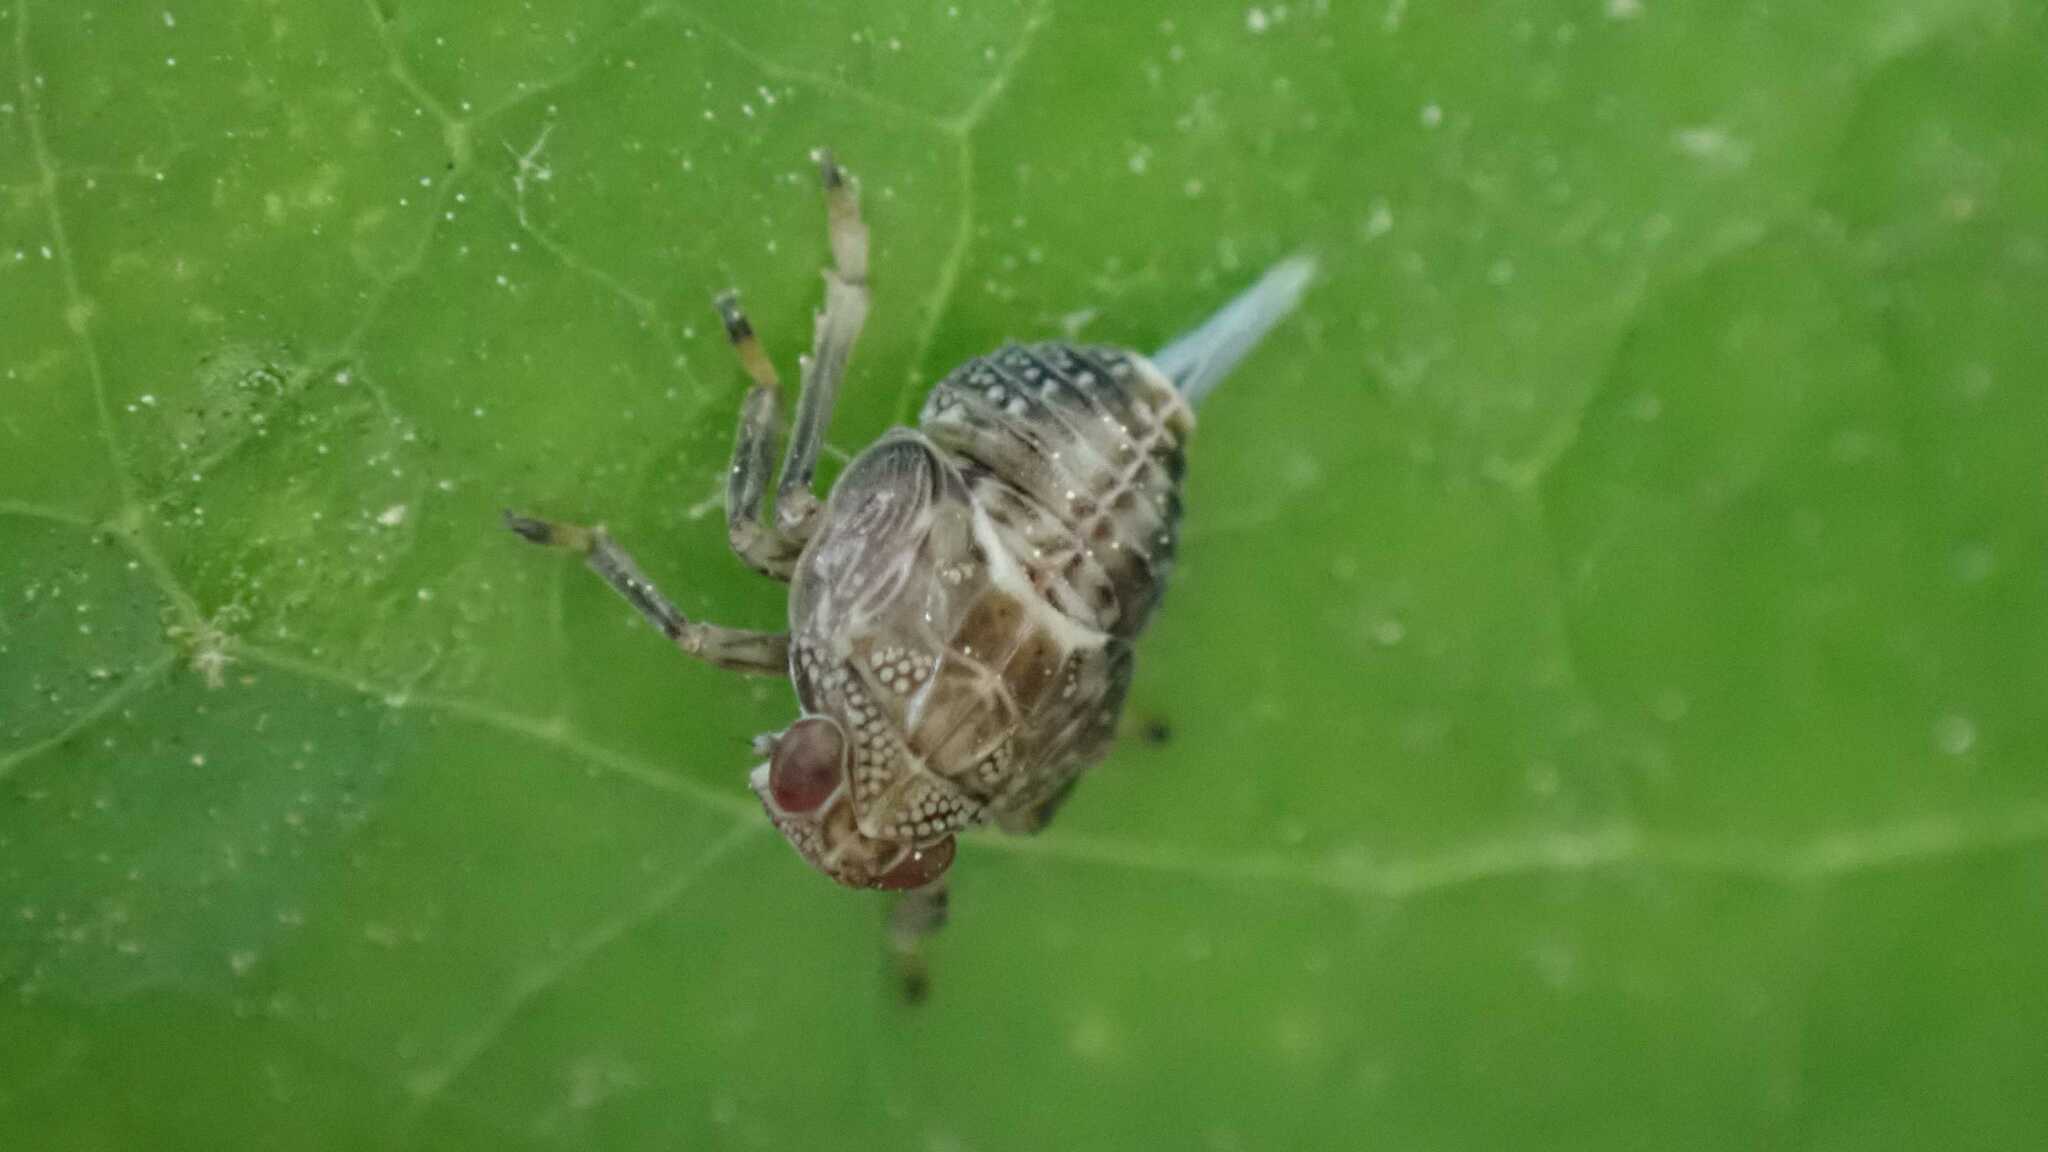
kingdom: Animalia
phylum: Arthropoda
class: Insecta
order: Hemiptera
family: Issidae
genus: Issus
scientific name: Issus coleoptratus
